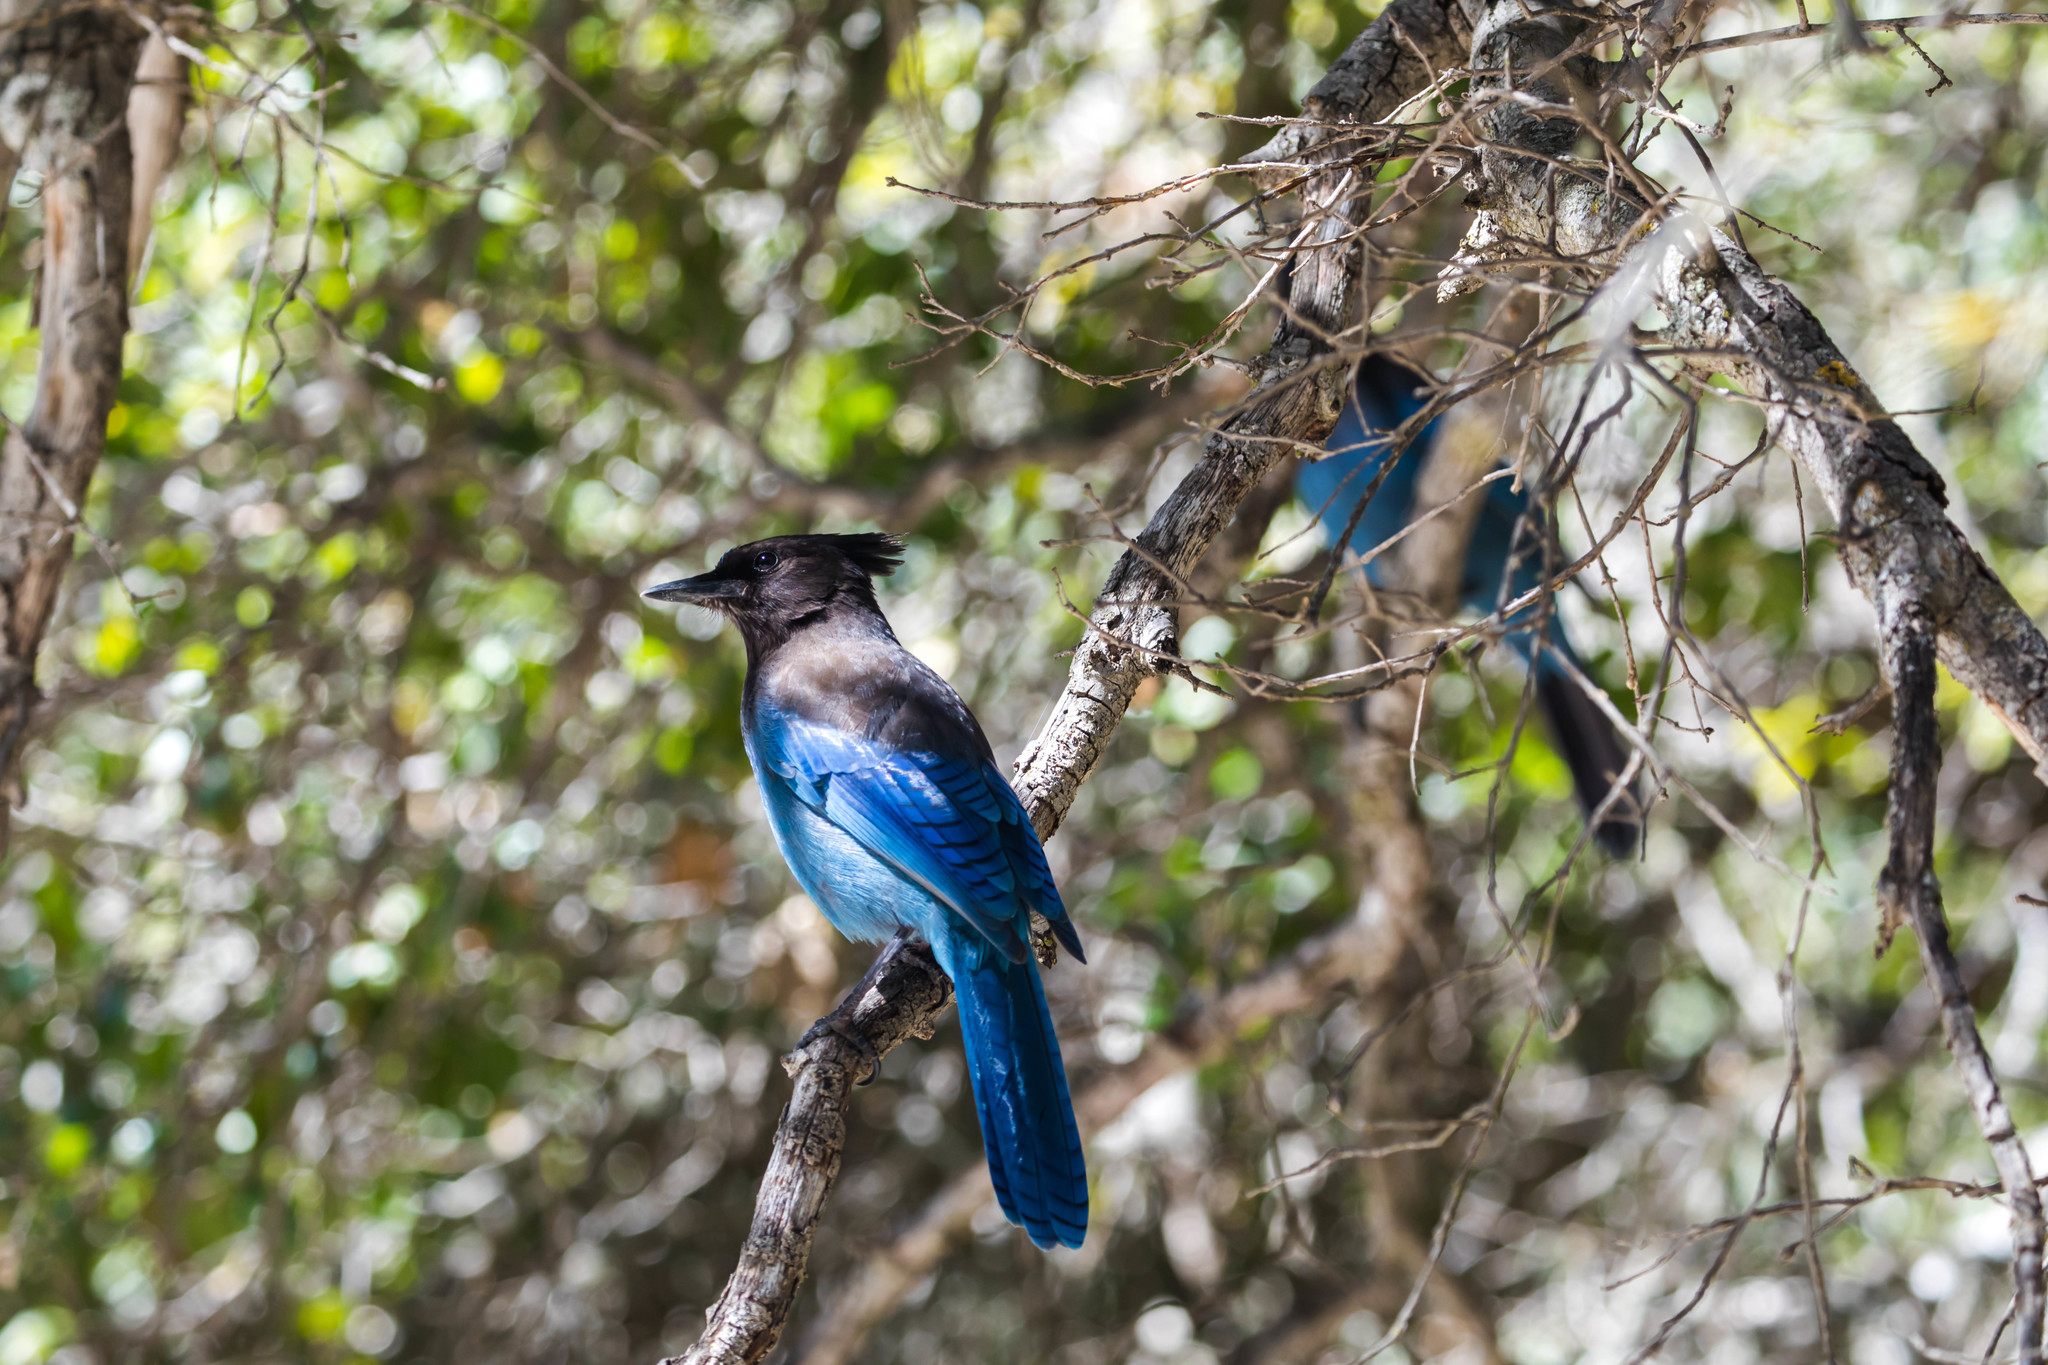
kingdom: Animalia
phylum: Chordata
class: Aves
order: Passeriformes
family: Corvidae
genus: Cyanocitta
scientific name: Cyanocitta stelleri
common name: Steller's jay
